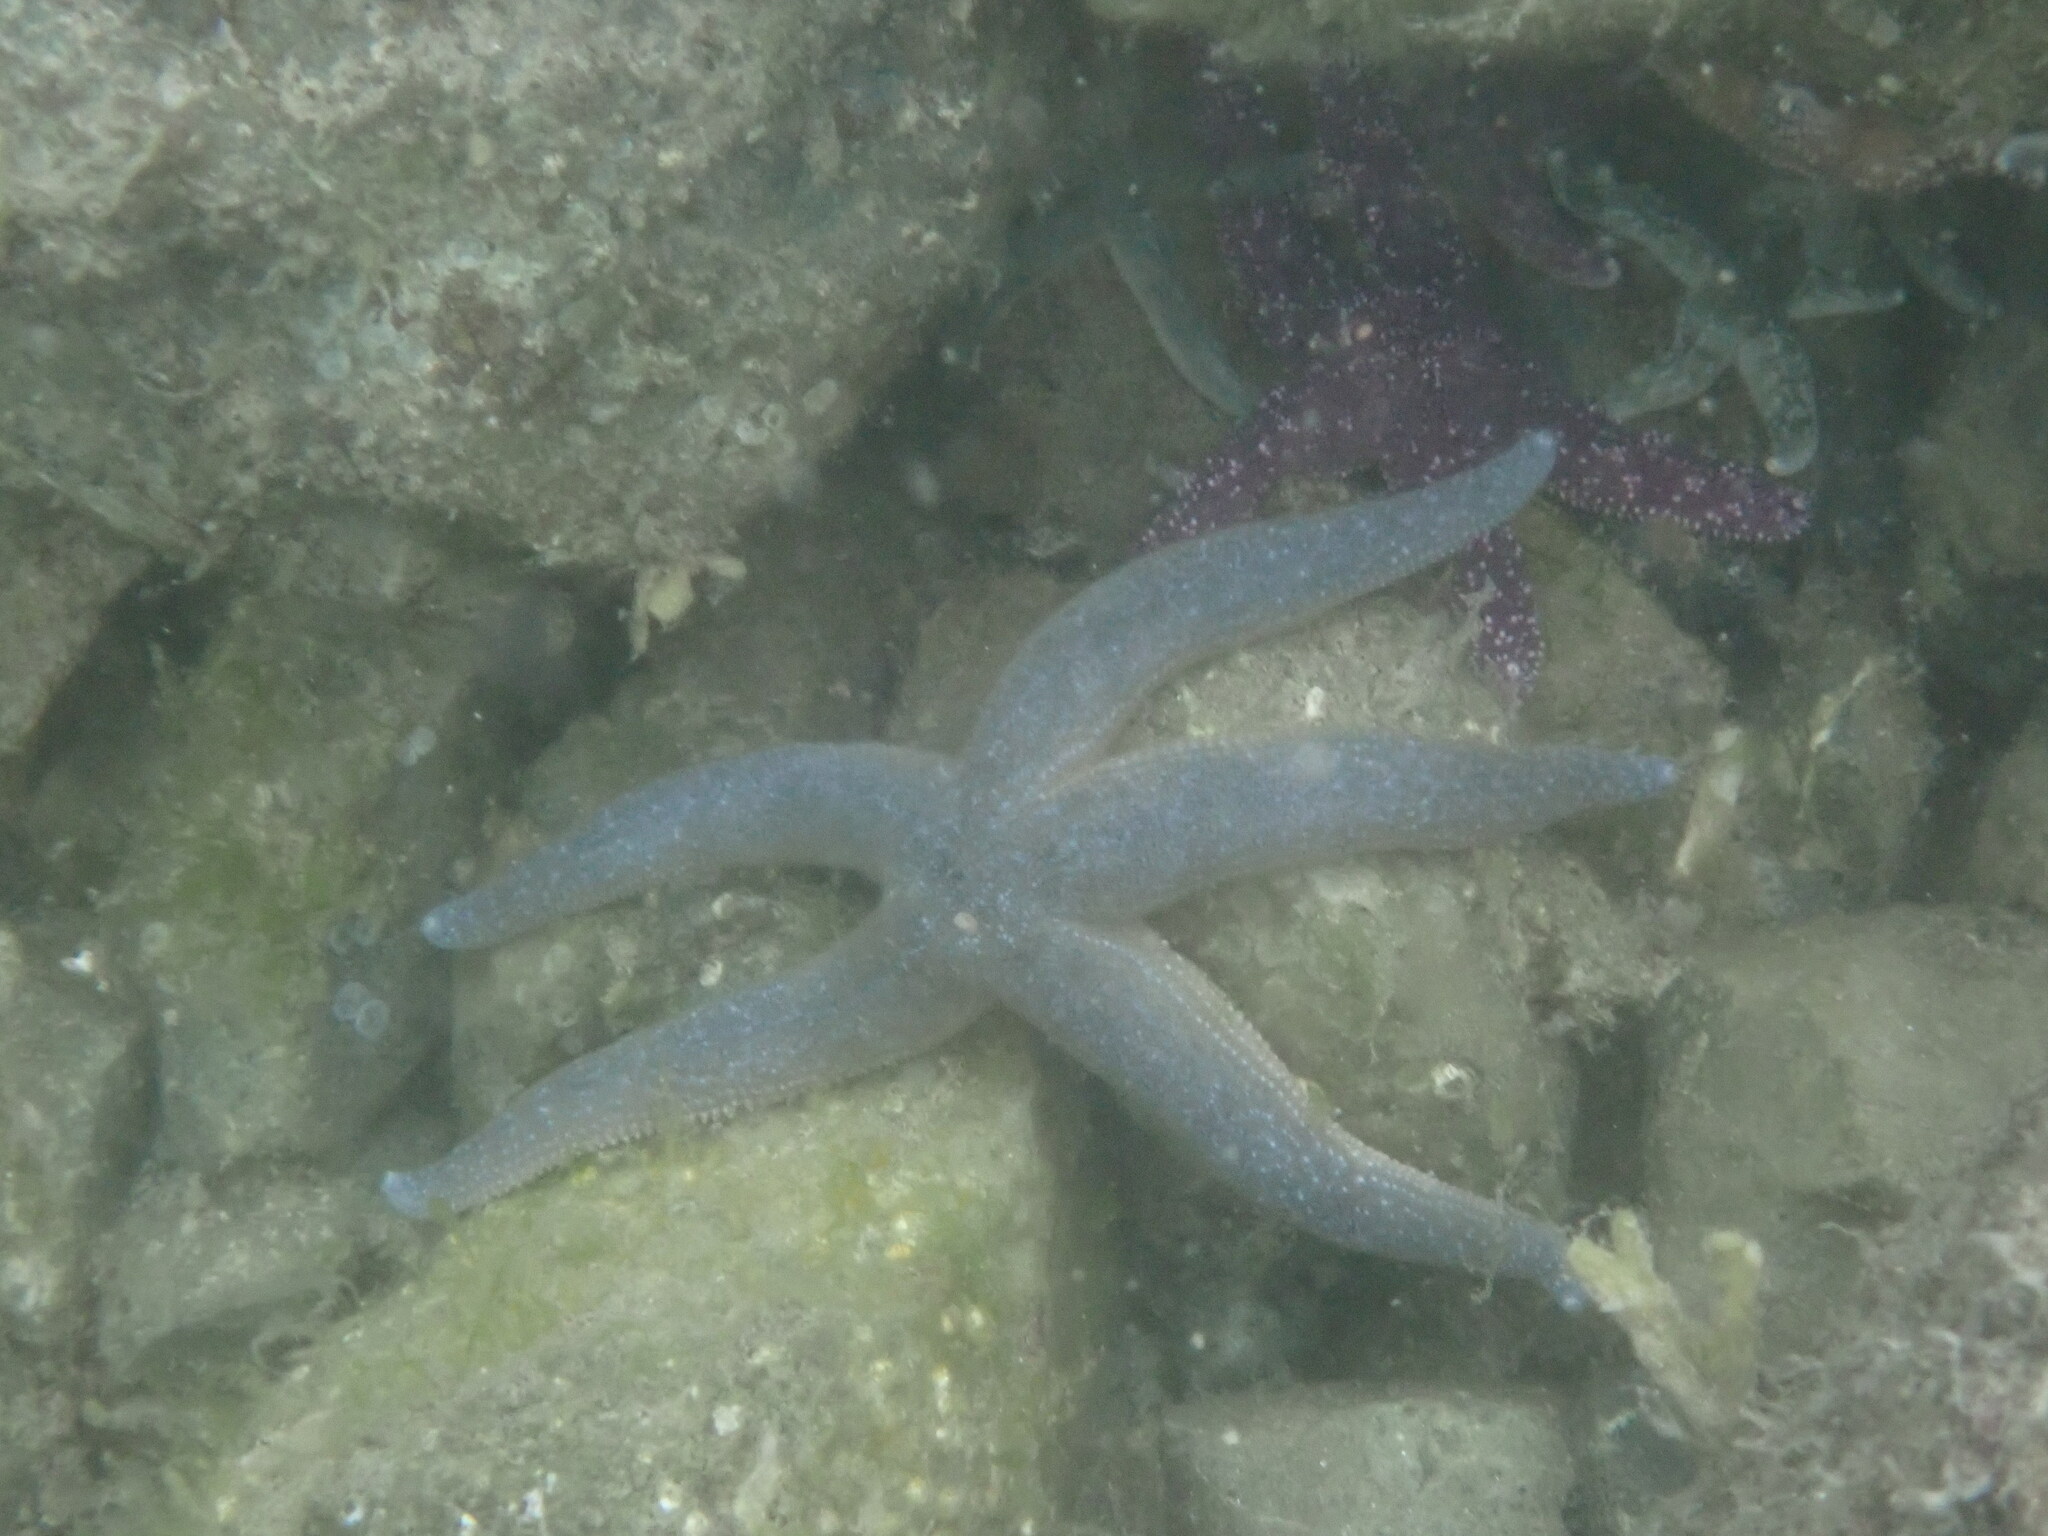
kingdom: Animalia
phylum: Echinodermata
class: Asteroidea
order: Forcipulatida
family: Asteriidae
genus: Evasterias
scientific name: Evasterias troschelii
